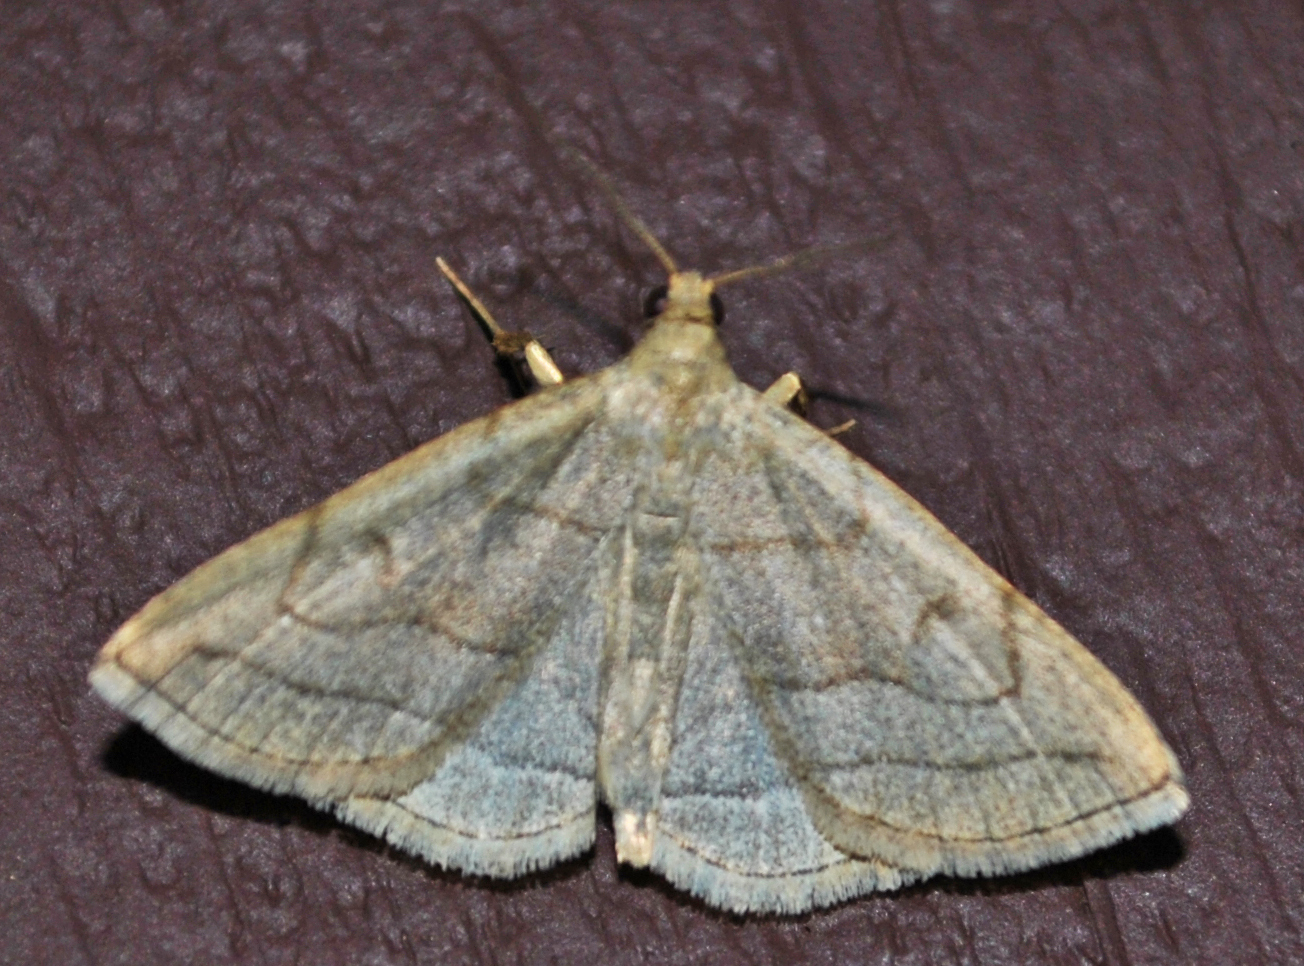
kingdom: Animalia
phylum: Arthropoda
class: Insecta
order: Lepidoptera
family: Erebidae
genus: Zanclognatha
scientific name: Zanclognatha pedipilalis
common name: Grayish fan-foot
